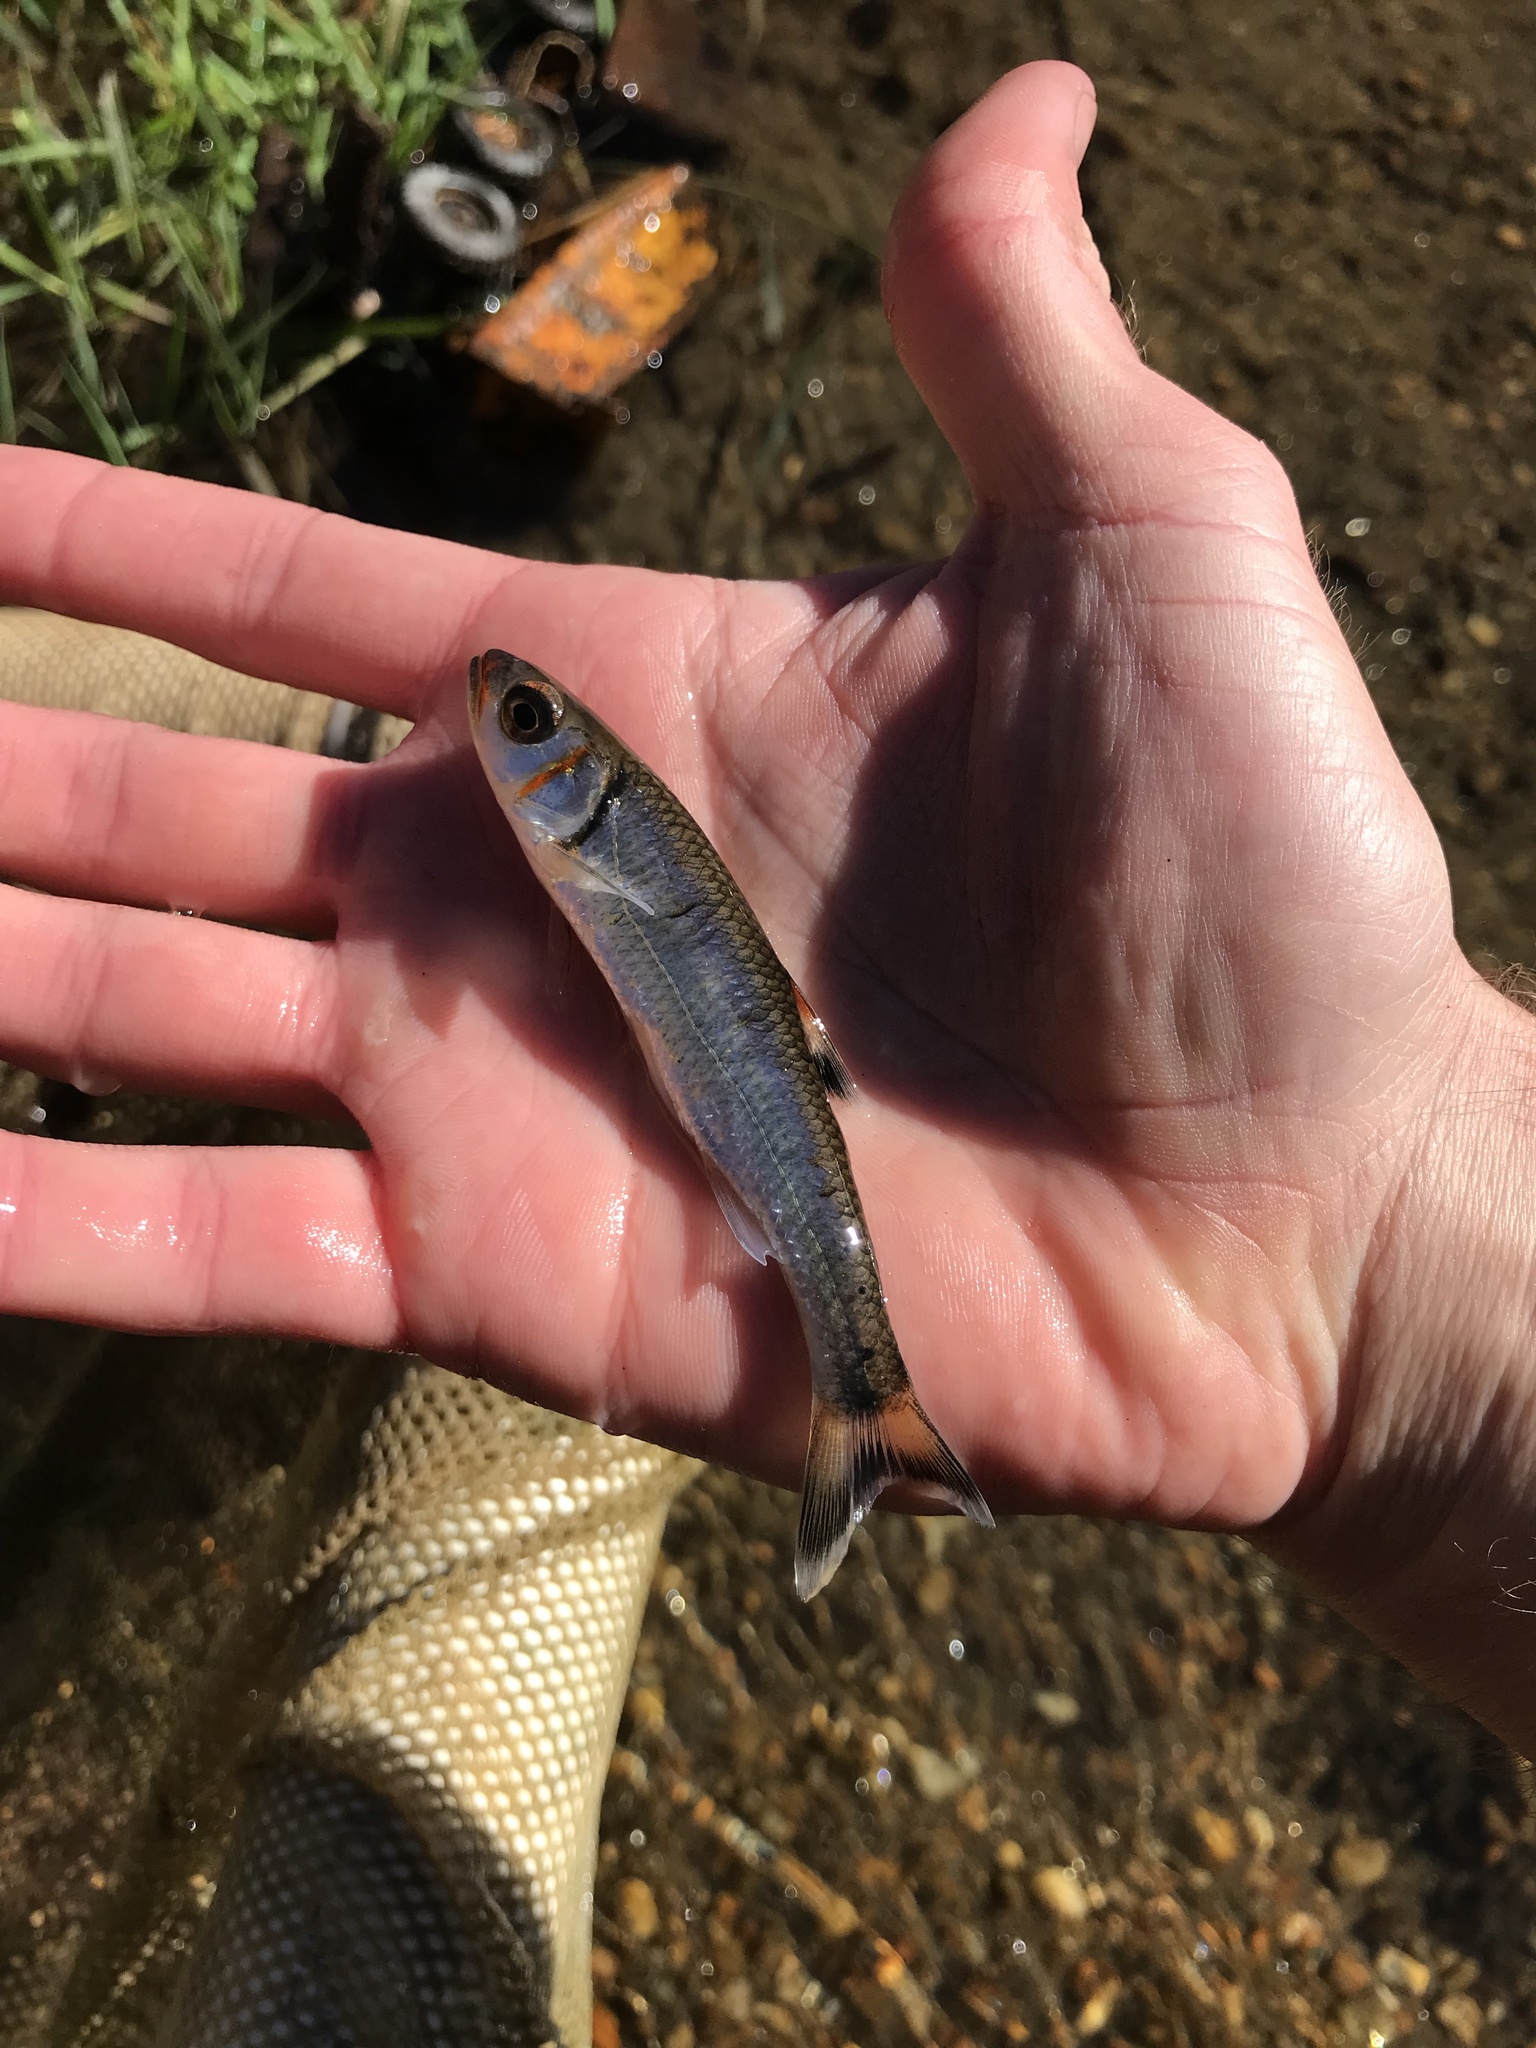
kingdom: Animalia
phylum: Chordata
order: Cypriniformes
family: Cyprinidae
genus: Luxilus
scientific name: Luxilus
